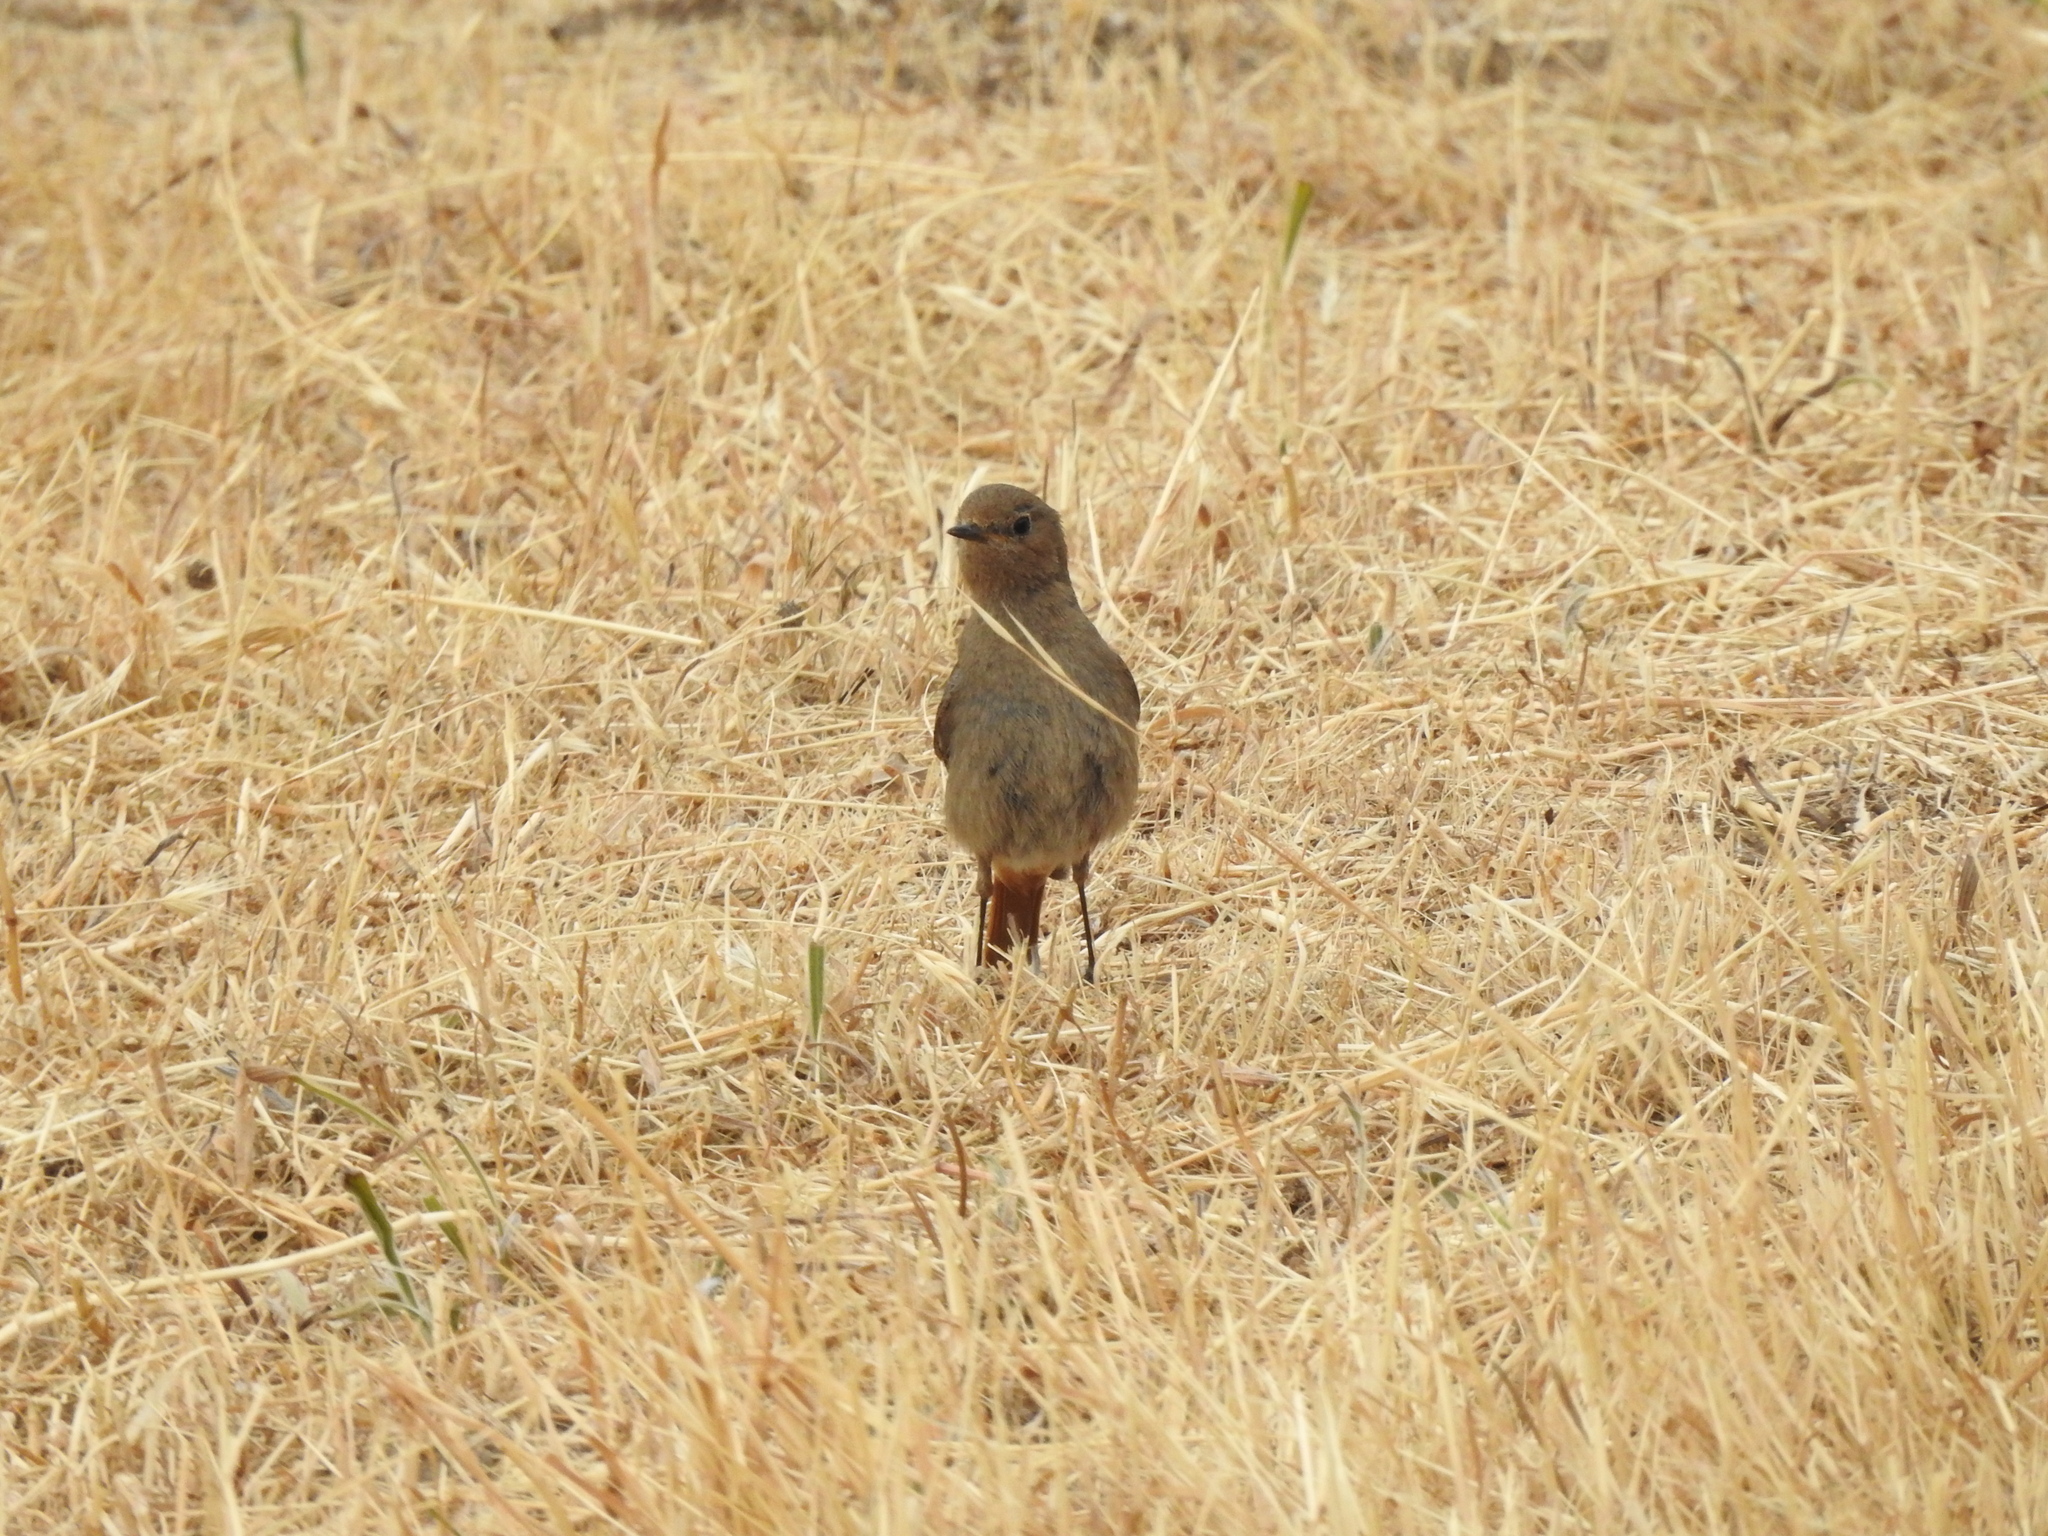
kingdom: Animalia
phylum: Chordata
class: Aves
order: Passeriformes
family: Muscicapidae
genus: Phoenicurus
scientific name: Phoenicurus ochruros
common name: Black redstart
